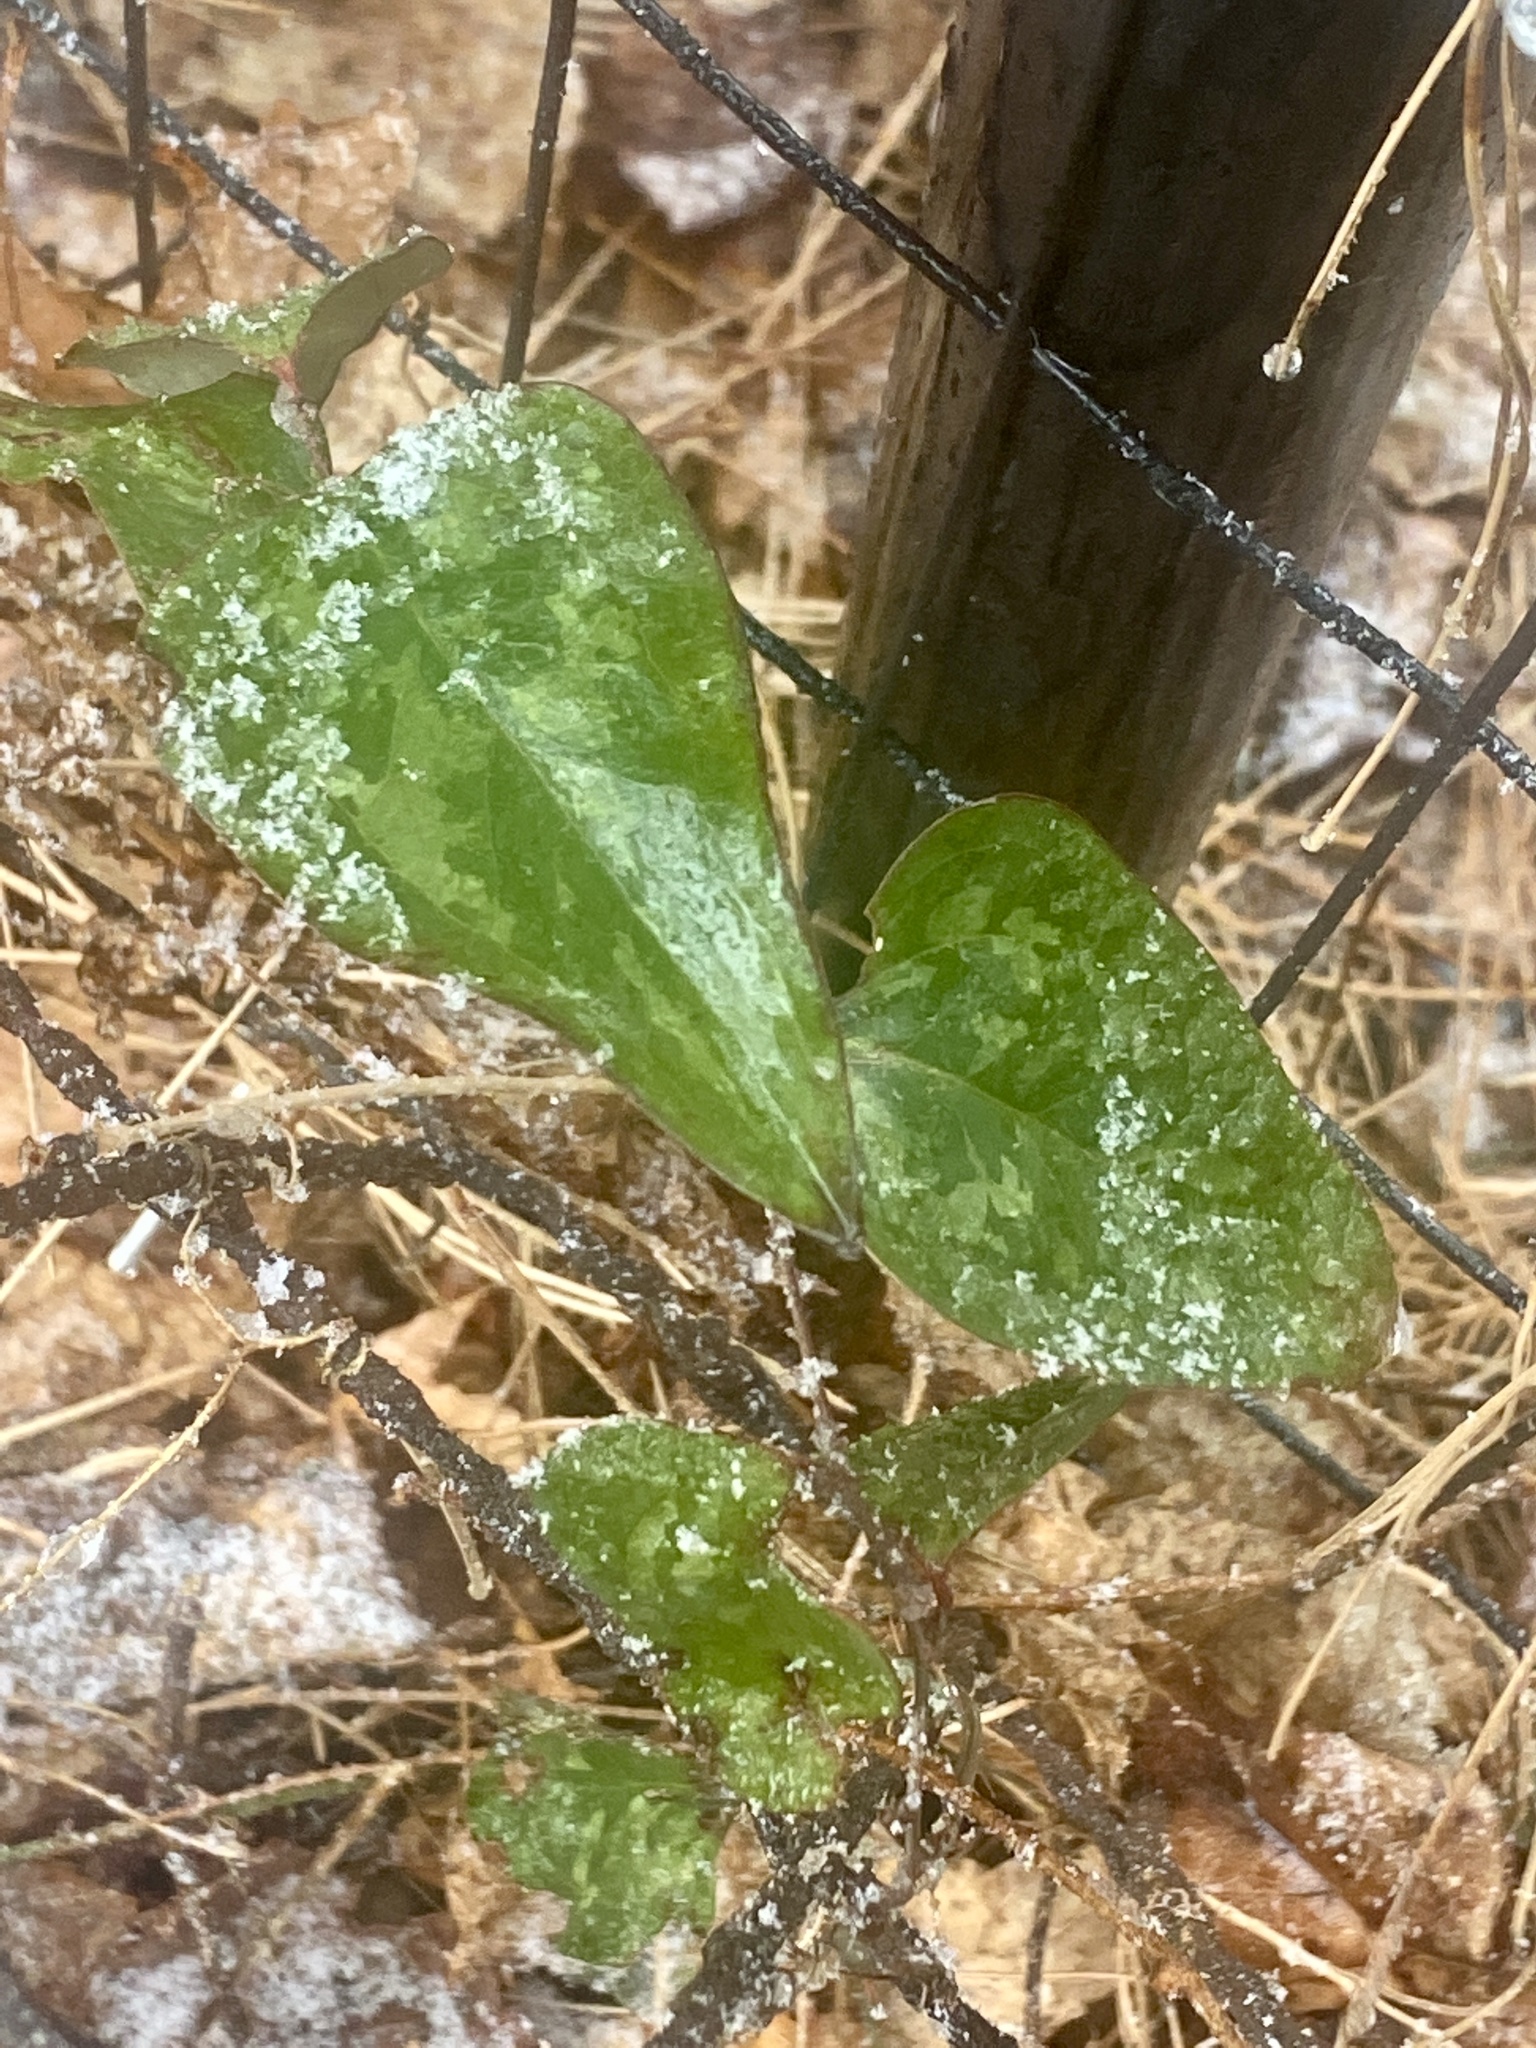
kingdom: Plantae
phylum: Tracheophyta
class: Liliopsida
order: Liliales
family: Smilacaceae
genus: Smilax
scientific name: Smilax glauca
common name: Cat greenbrier
